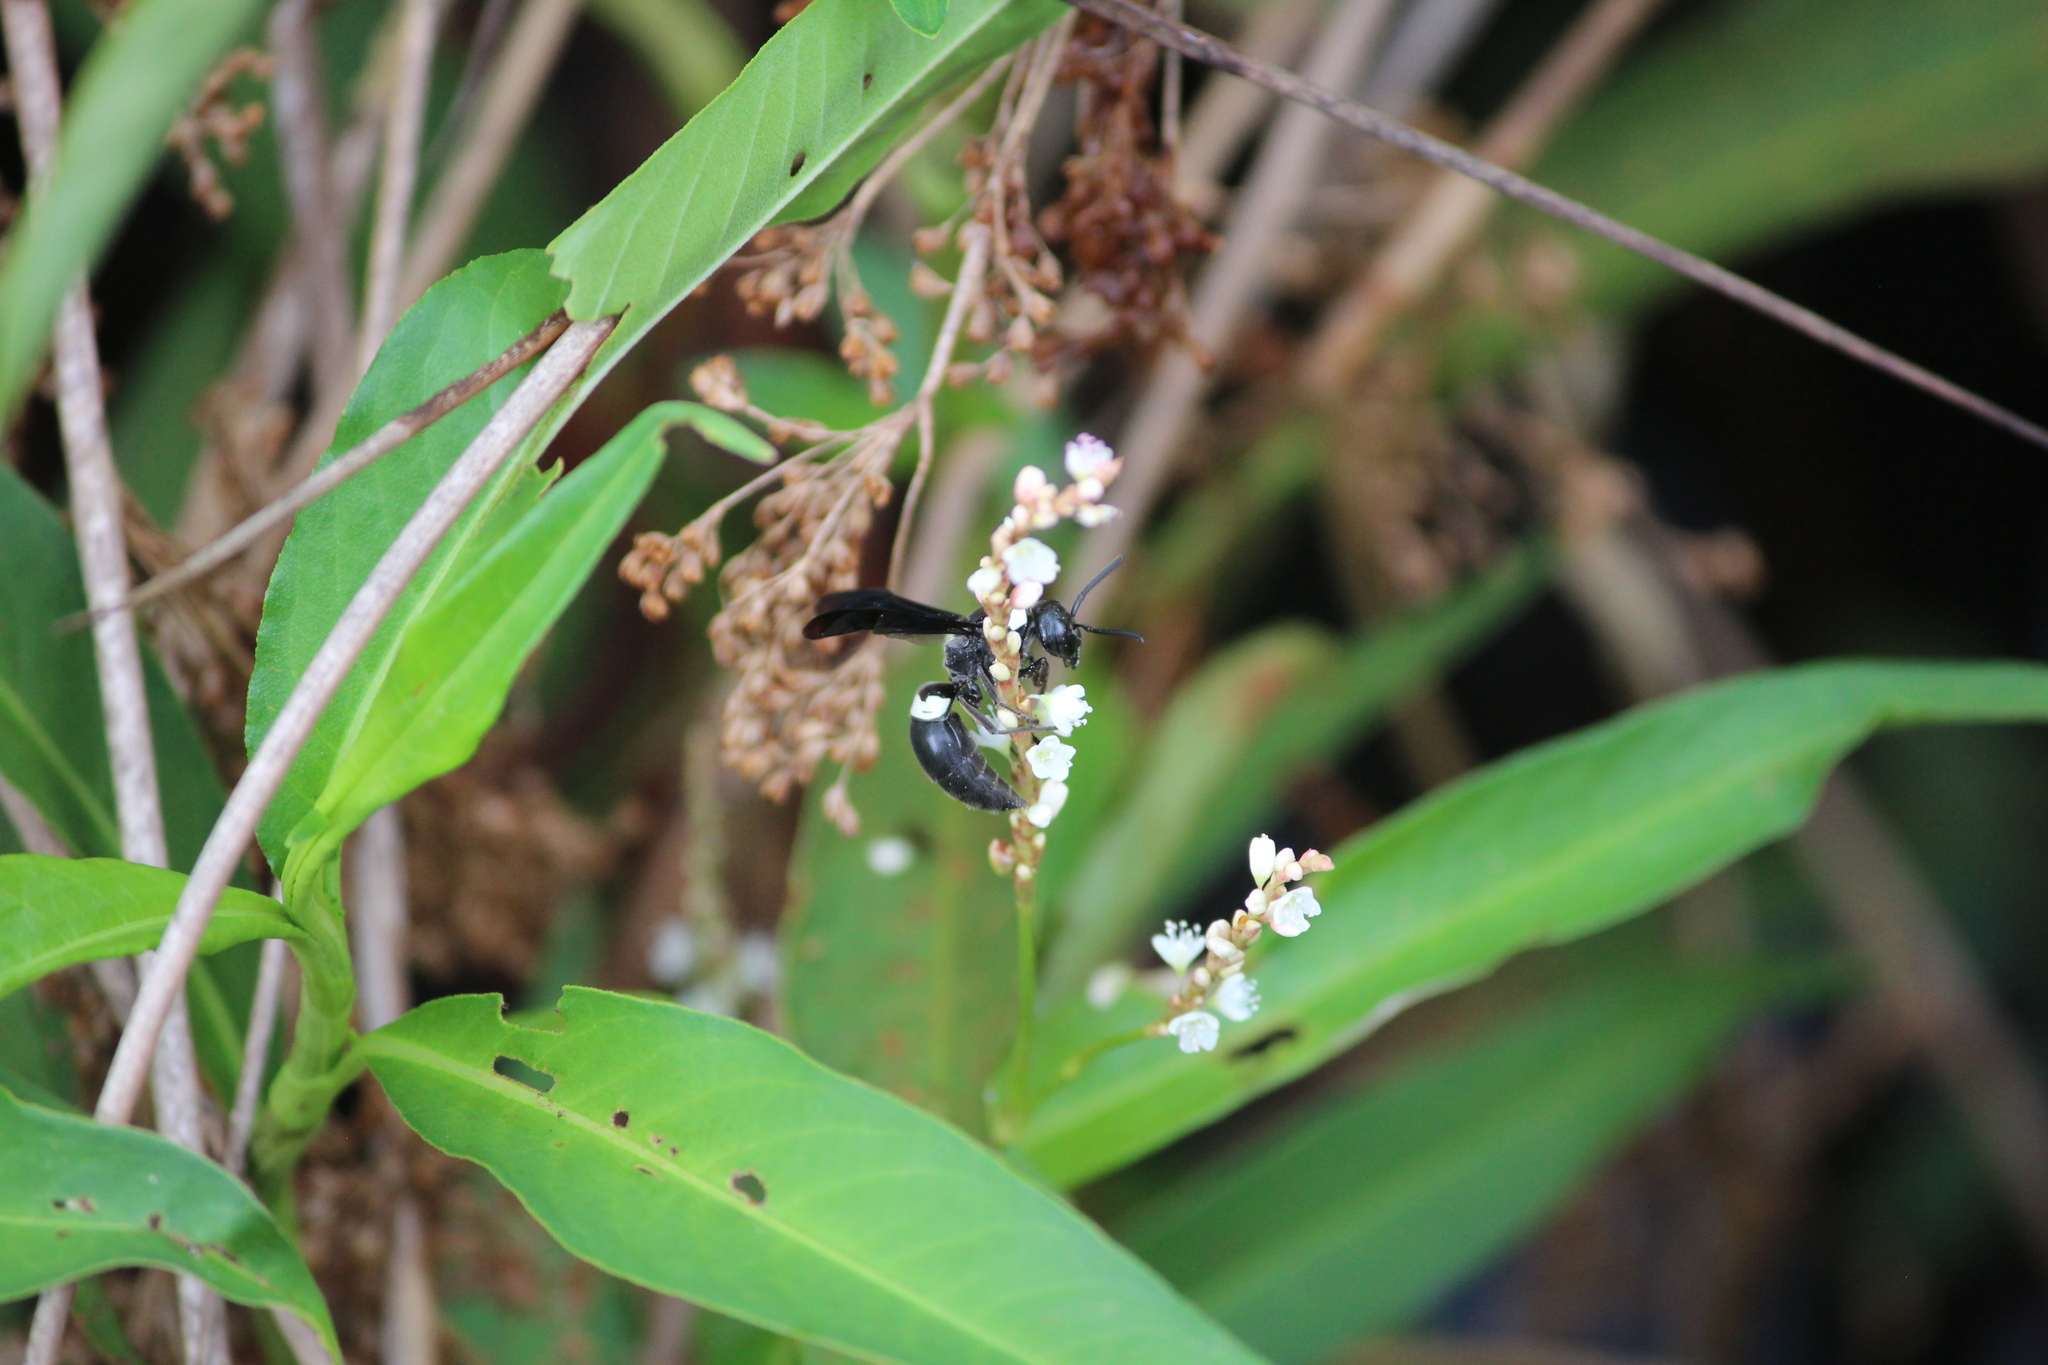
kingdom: Animalia
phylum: Arthropoda
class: Insecta
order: Hymenoptera
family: Eumenidae
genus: Monobia
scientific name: Monobia quadridens
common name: Four-toothed mason wasp
